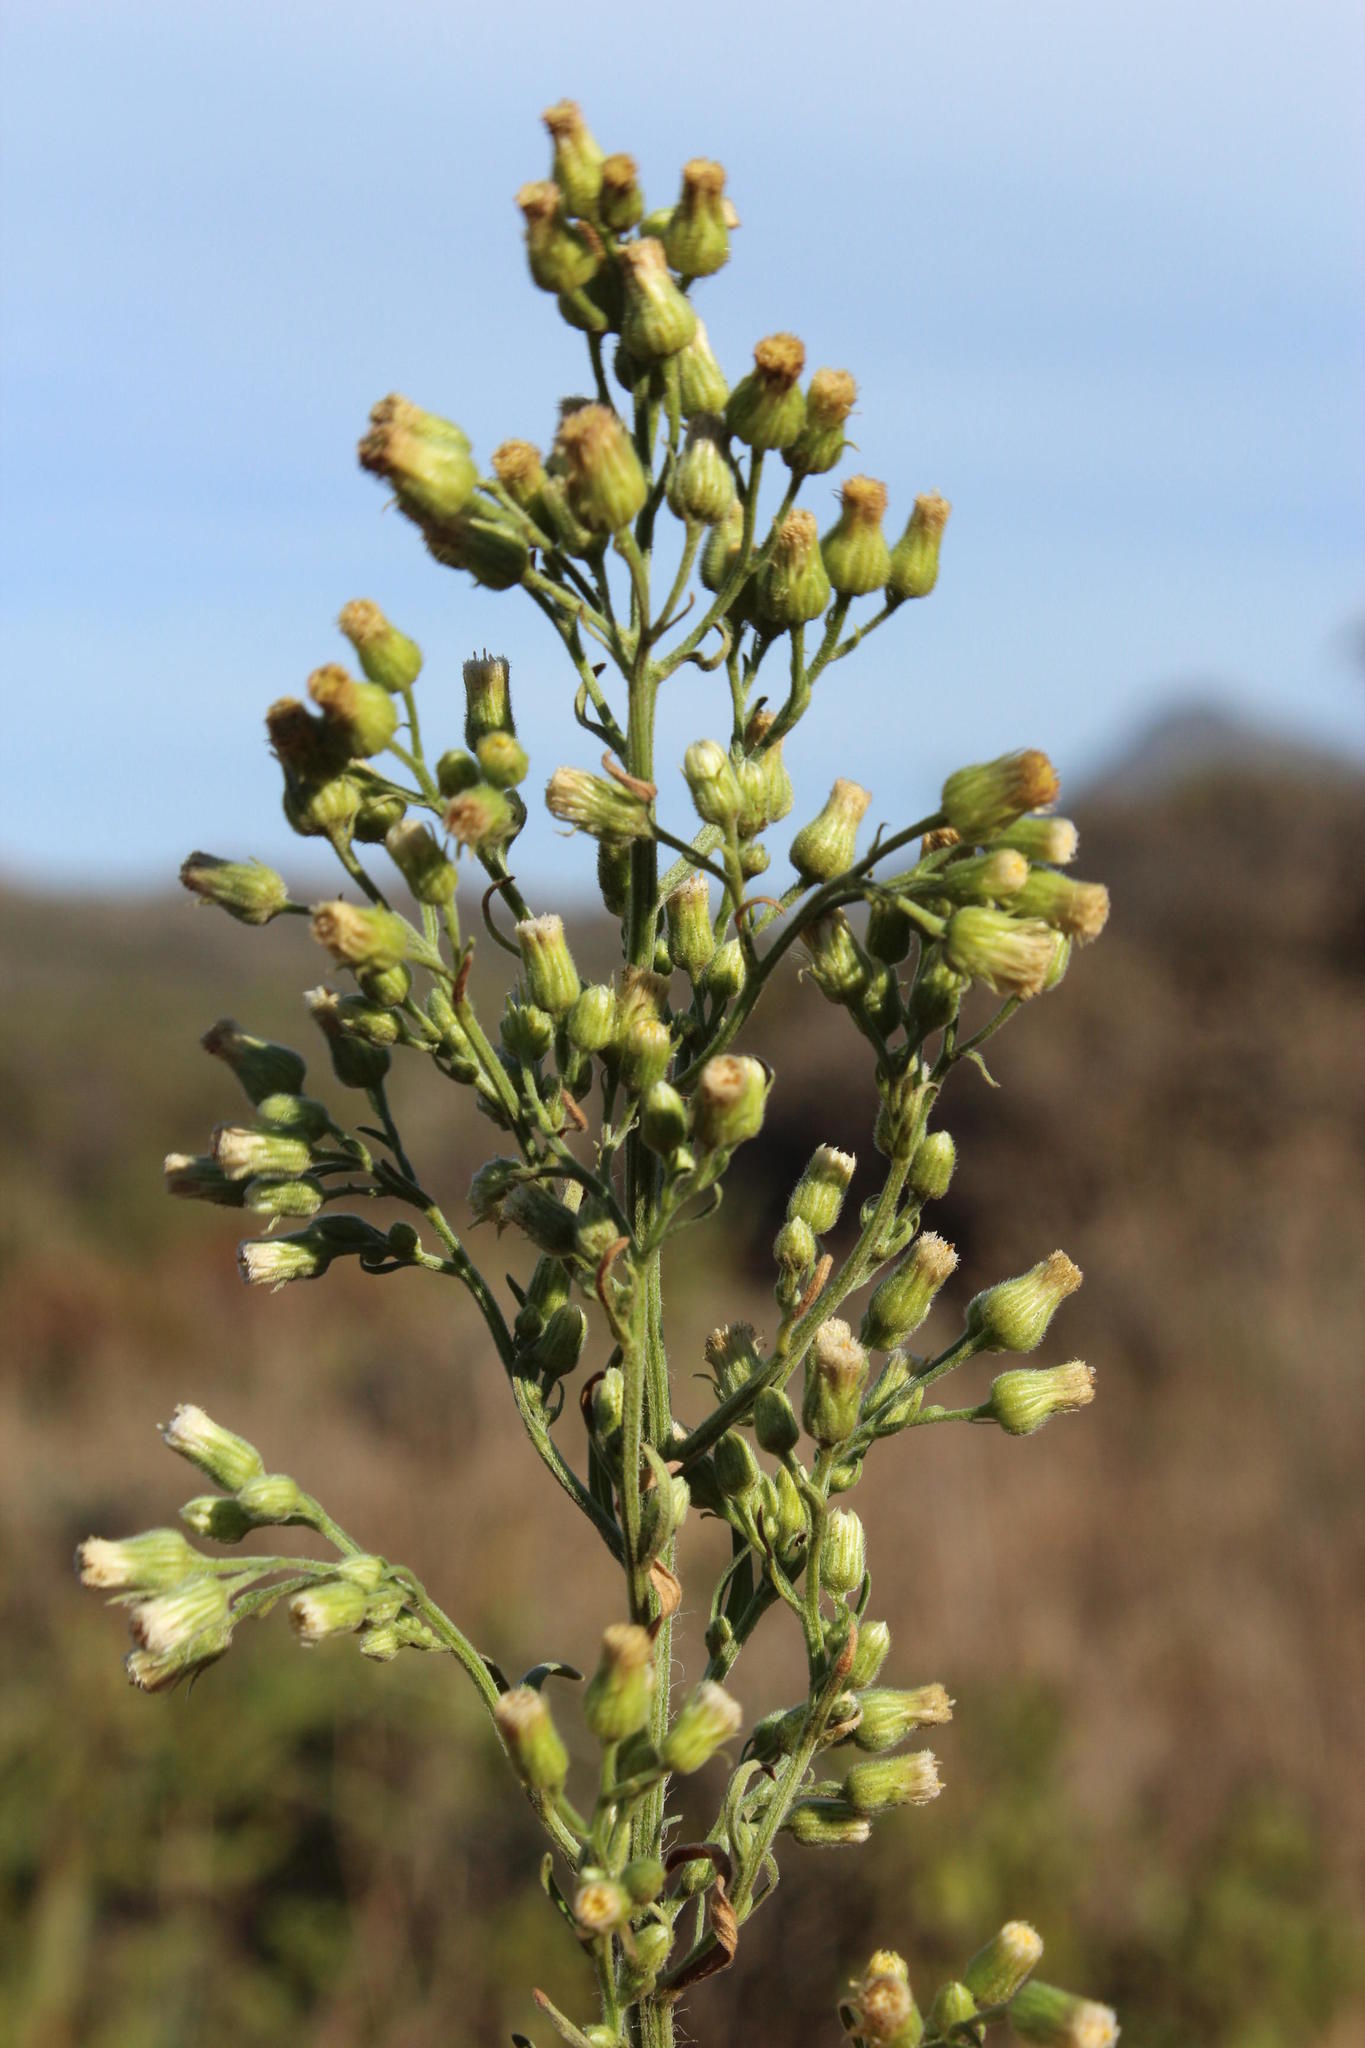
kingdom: Plantae
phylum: Tracheophyta
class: Magnoliopsida
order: Asterales
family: Asteraceae
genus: Erigeron
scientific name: Erigeron sumatrensis
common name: Daisy
